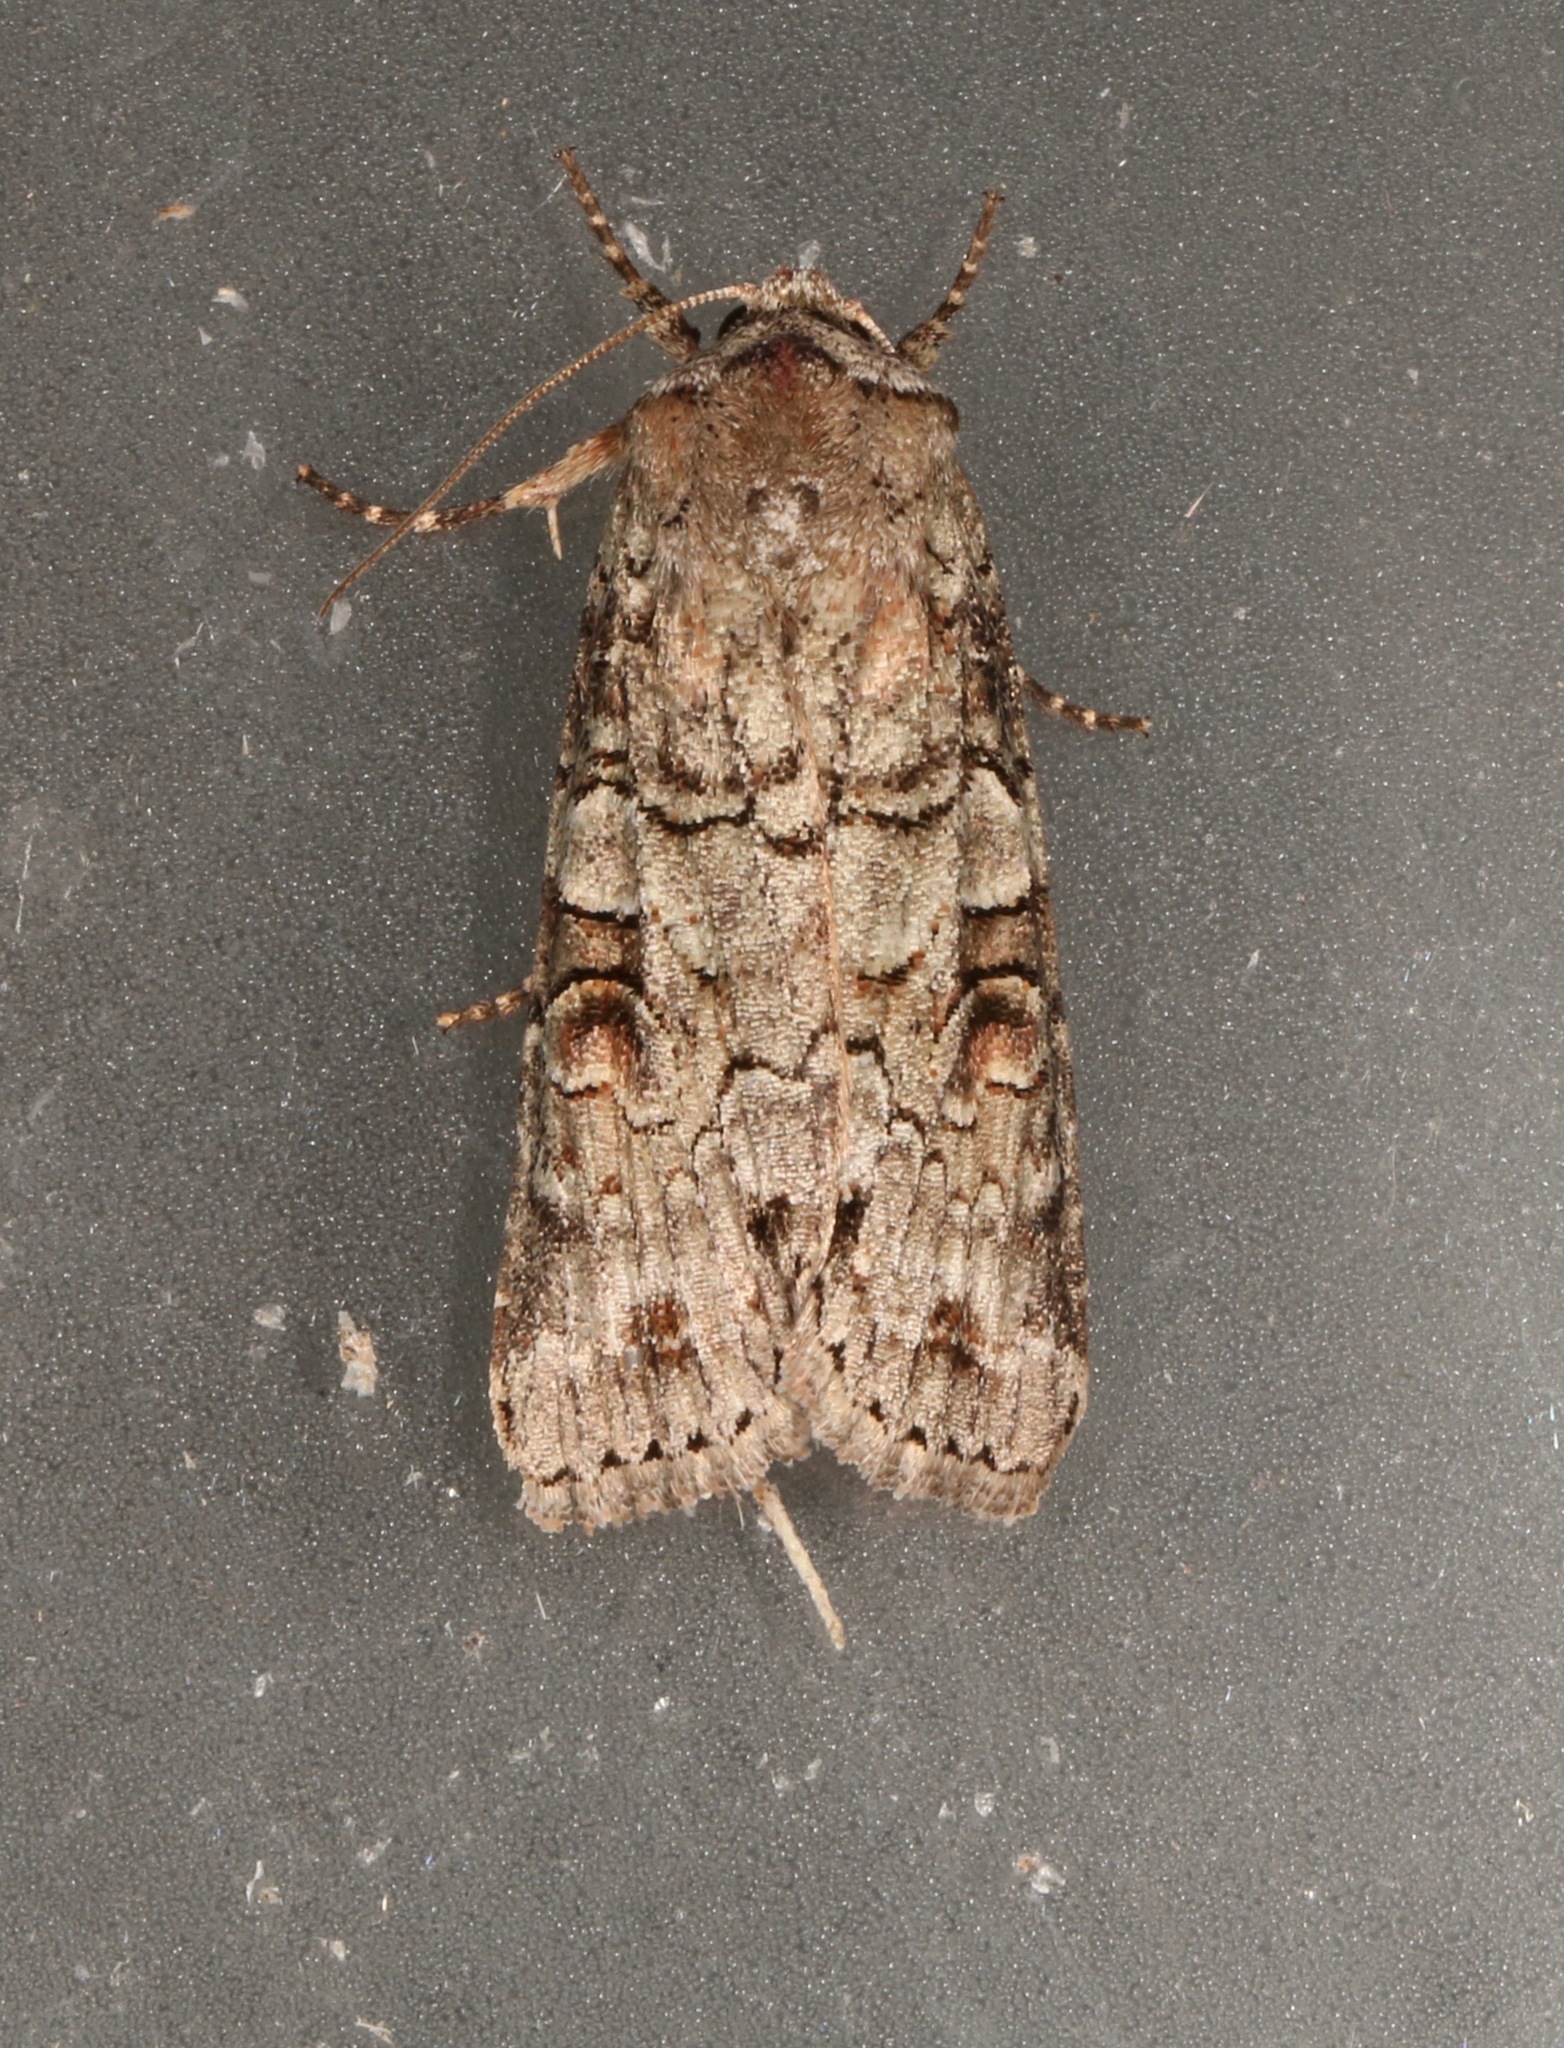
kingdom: Animalia
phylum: Arthropoda
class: Insecta
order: Lepidoptera
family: Noctuidae
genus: Egira
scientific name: Egira alternans
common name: Alternate woodling
